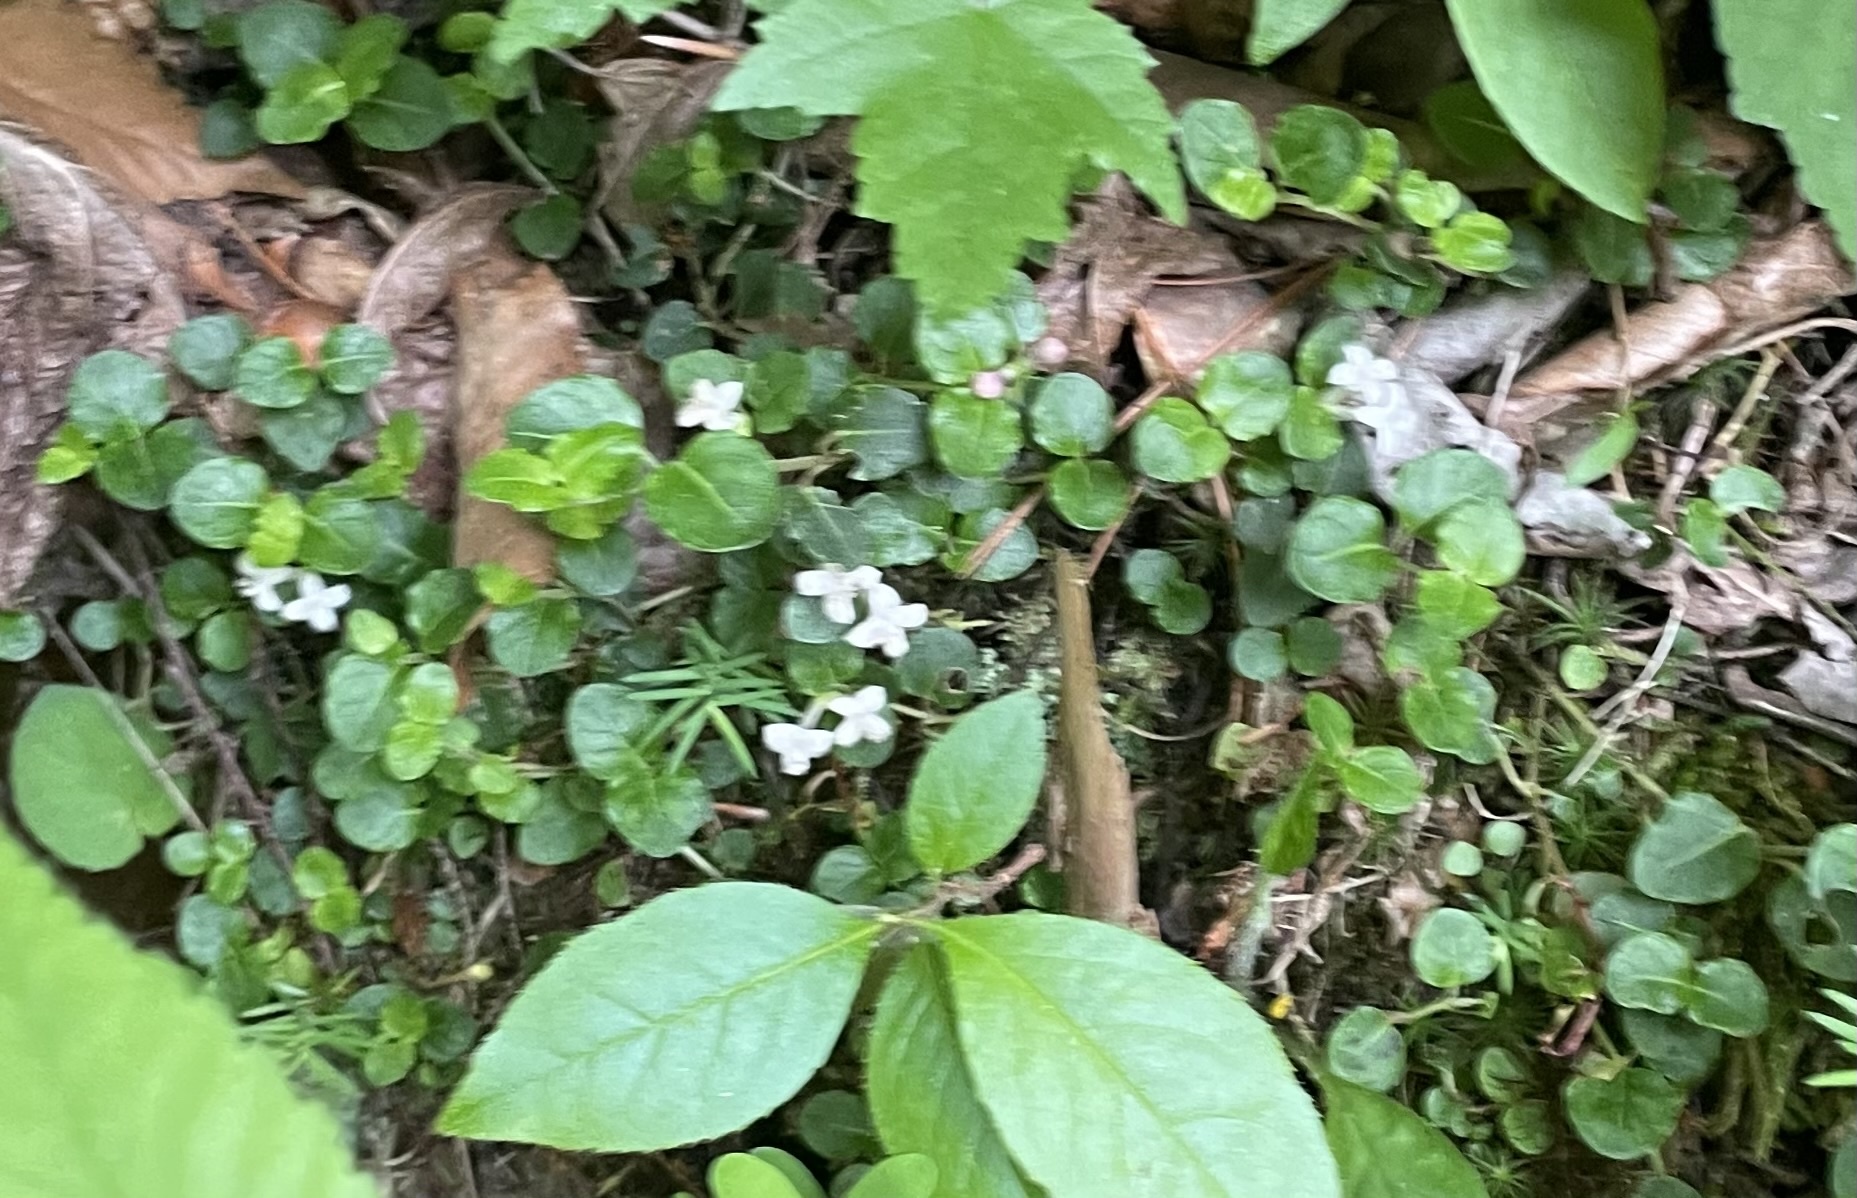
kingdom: Plantae
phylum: Tracheophyta
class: Magnoliopsida
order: Gentianales
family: Rubiaceae
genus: Mitchella
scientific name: Mitchella repens
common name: Partridge-berry
